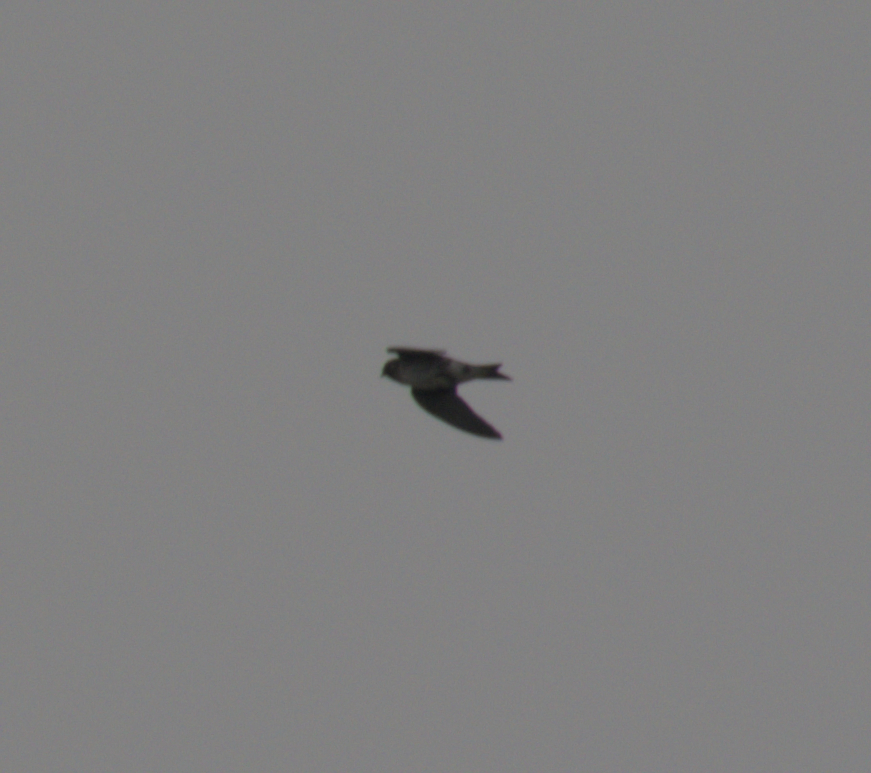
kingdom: Animalia
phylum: Chordata
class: Aves
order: Passeriformes
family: Hirundinidae
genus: Progne
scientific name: Progne subis
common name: Purple martin
